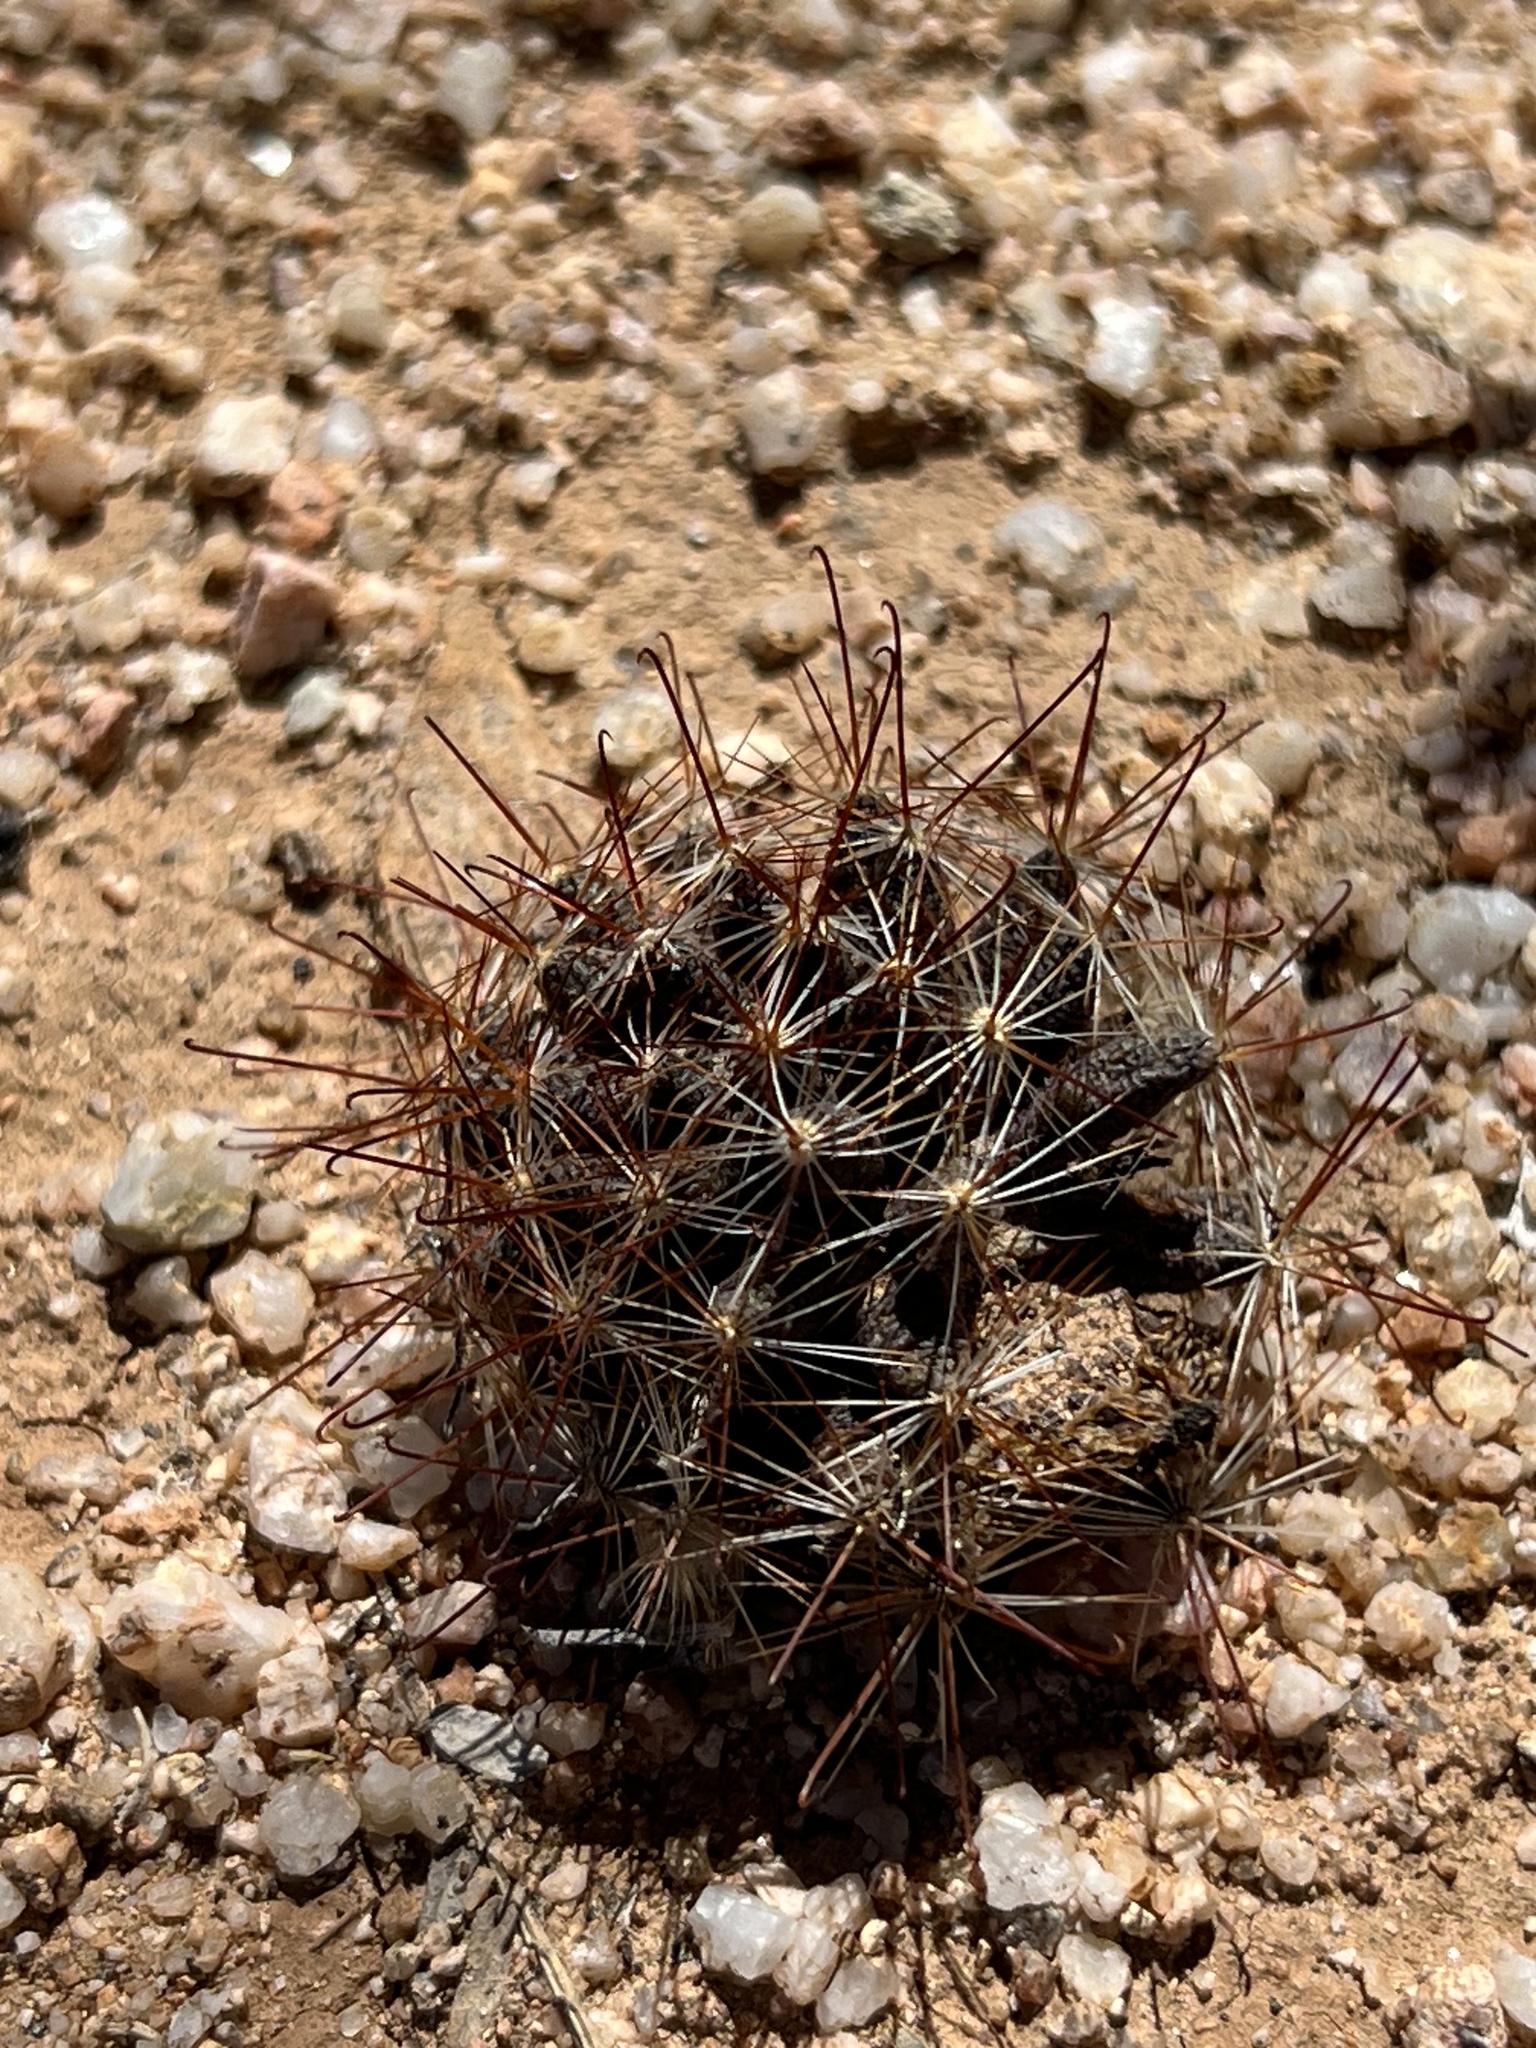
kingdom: Plantae
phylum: Tracheophyta
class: Magnoliopsida
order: Caryophyllales
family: Cactaceae
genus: Cochemiea
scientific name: Cochemiea wrightii
